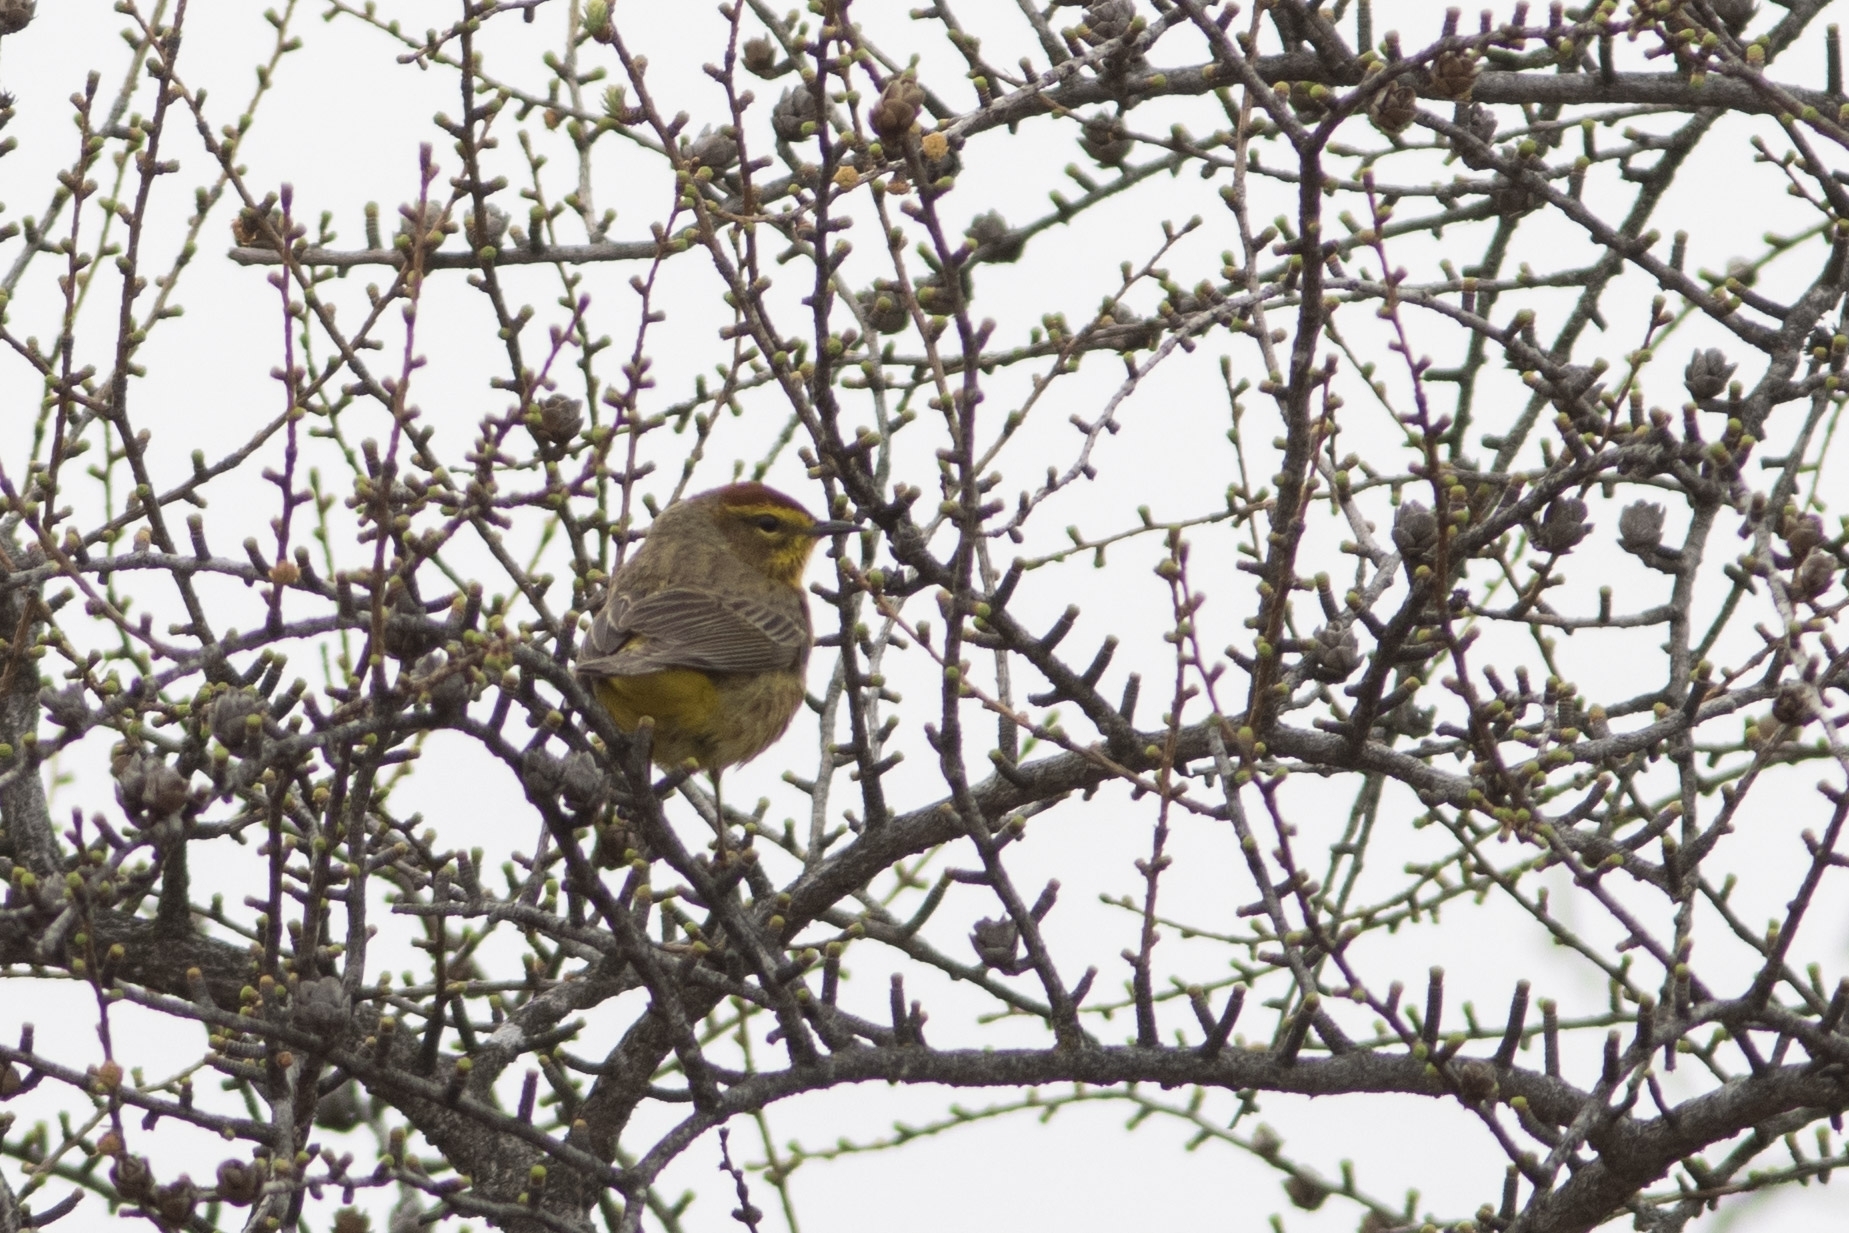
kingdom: Animalia
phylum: Chordata
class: Aves
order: Passeriformes
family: Parulidae
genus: Setophaga
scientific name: Setophaga palmarum
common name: Palm warbler
